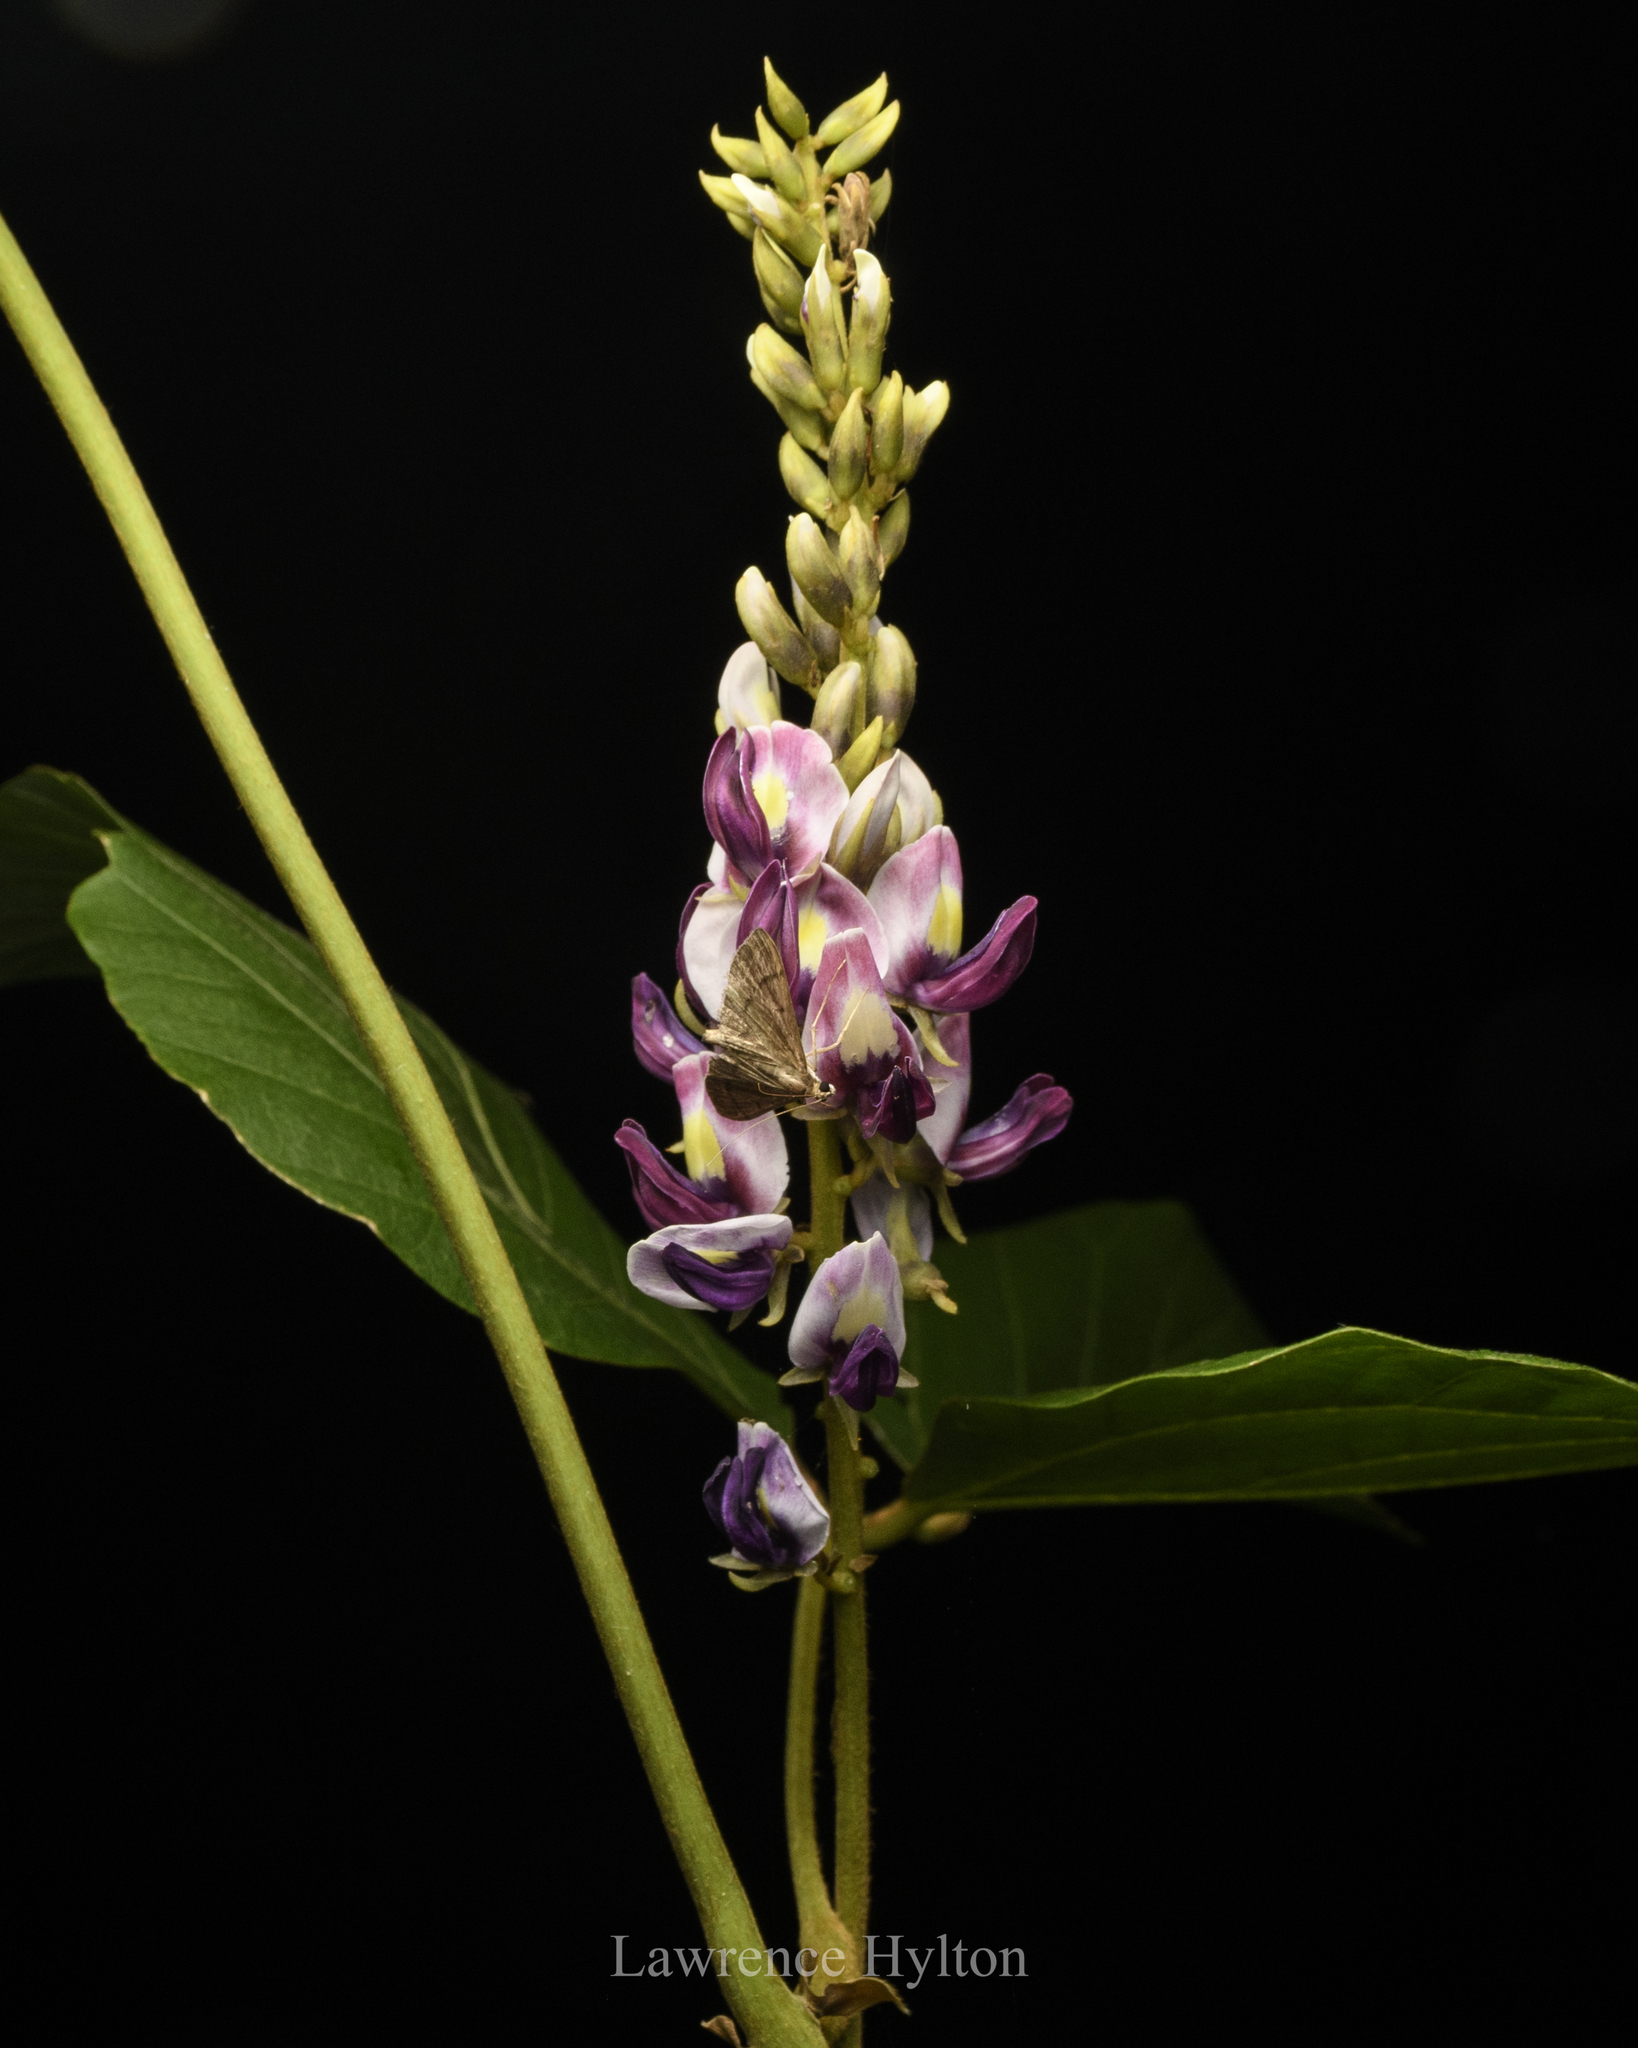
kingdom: Plantae
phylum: Tracheophyta
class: Magnoliopsida
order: Fabales
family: Fabaceae
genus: Pueraria
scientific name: Pueraria montana
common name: Kudzu
